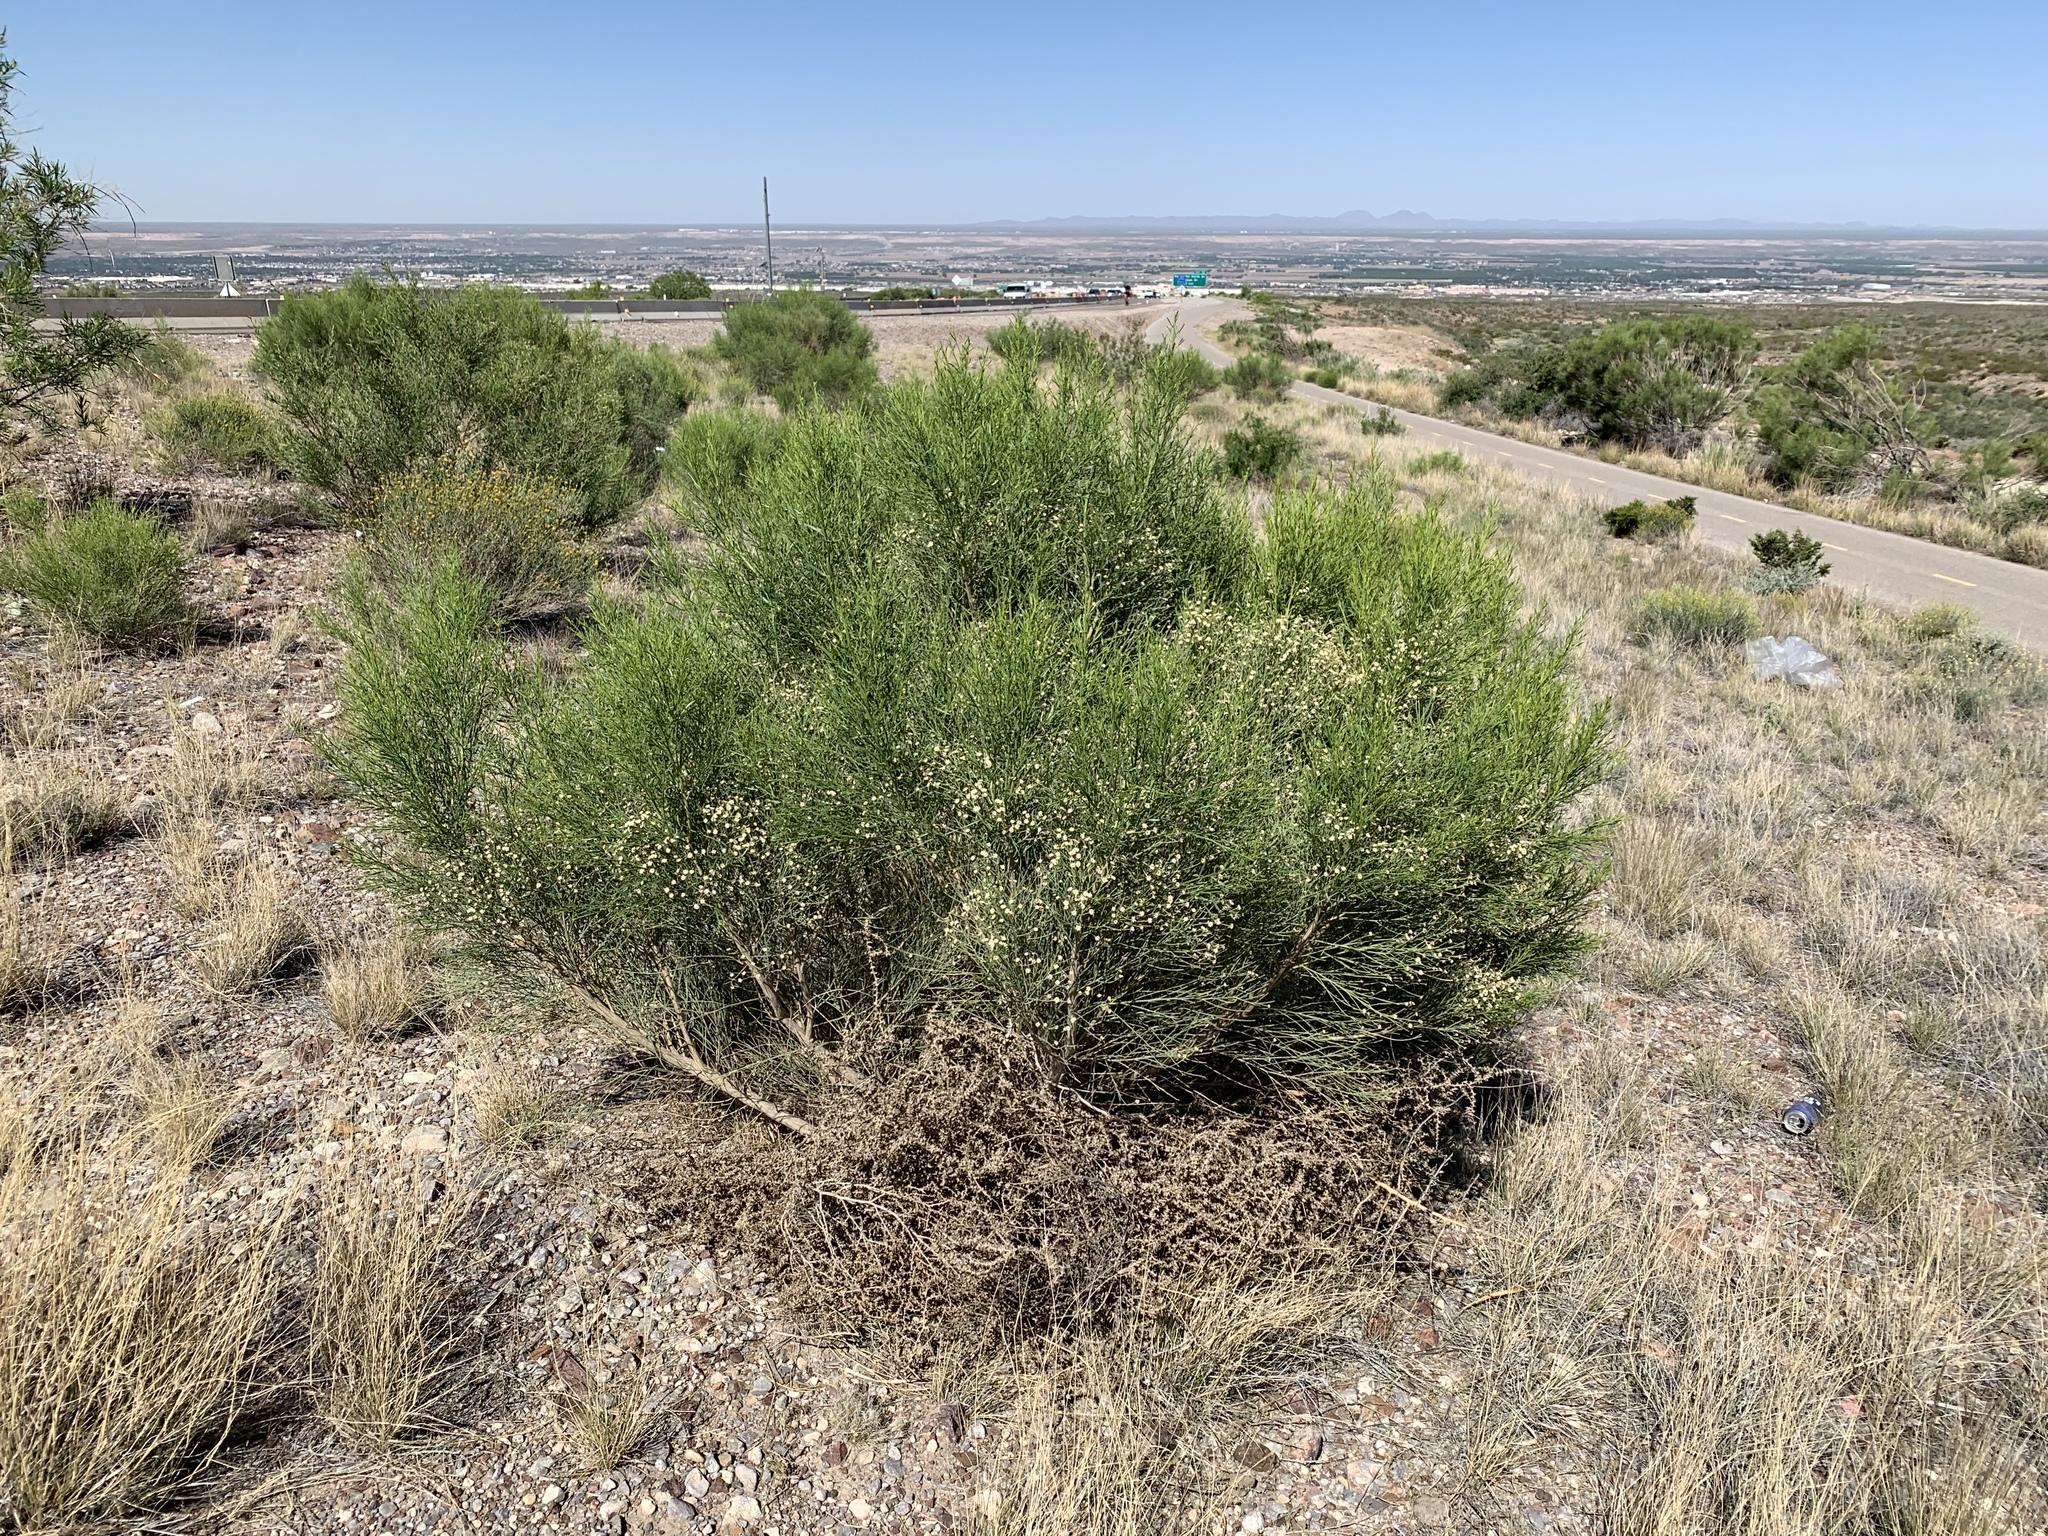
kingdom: Plantae
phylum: Tracheophyta
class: Magnoliopsida
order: Asterales
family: Asteraceae
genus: Baccharis
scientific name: Baccharis sarothroides
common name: Desert-broom
